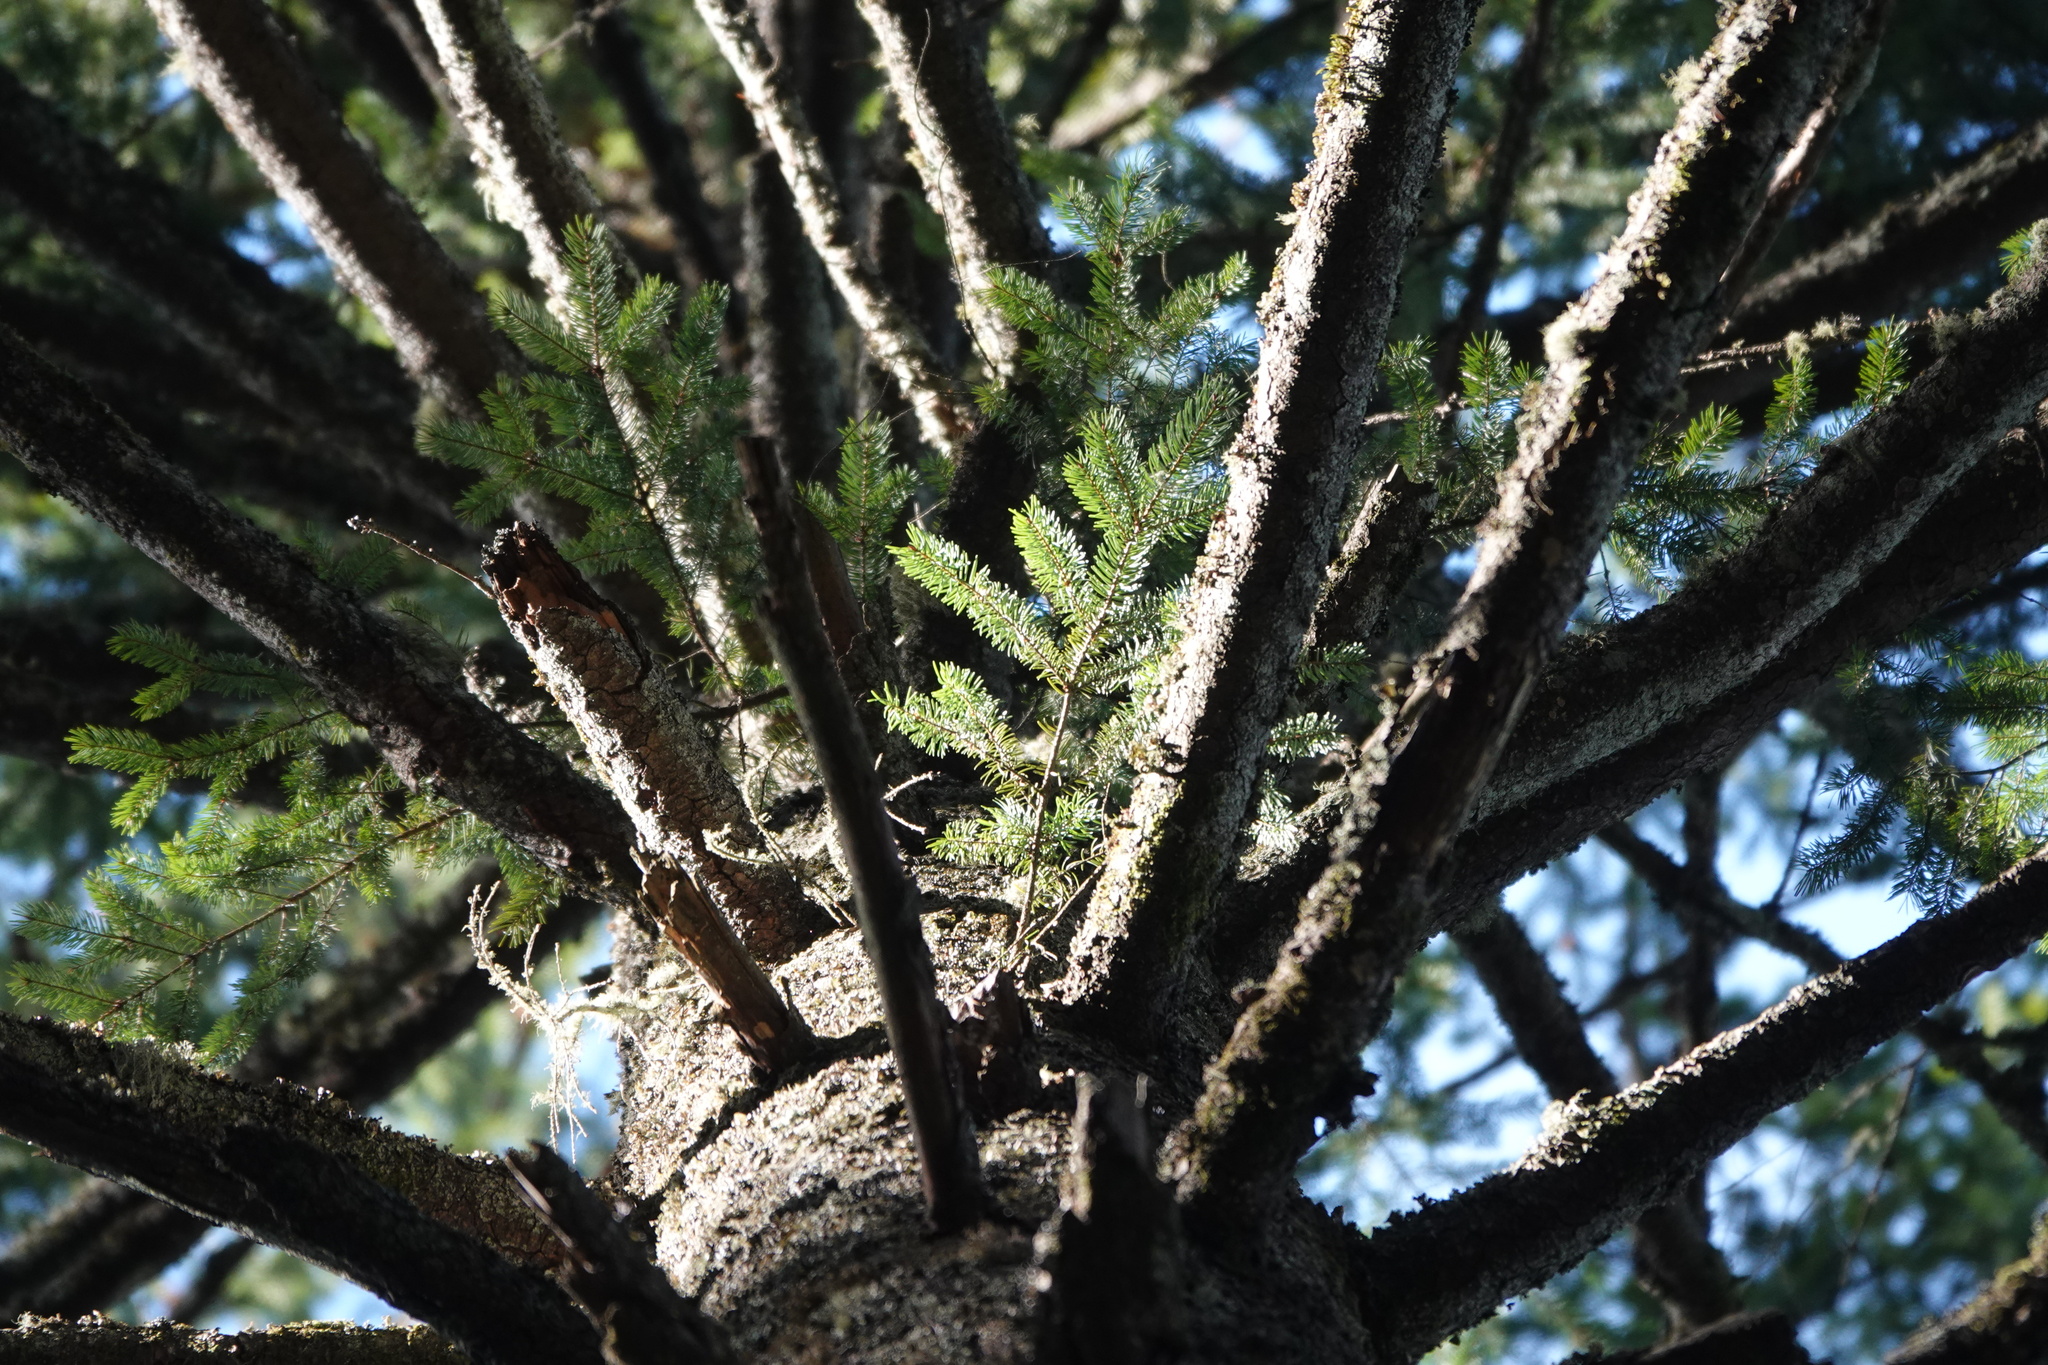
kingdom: Plantae
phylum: Tracheophyta
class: Pinopsida
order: Pinales
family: Pinaceae
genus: Pseudotsuga
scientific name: Pseudotsuga menziesii
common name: Douglas fir
